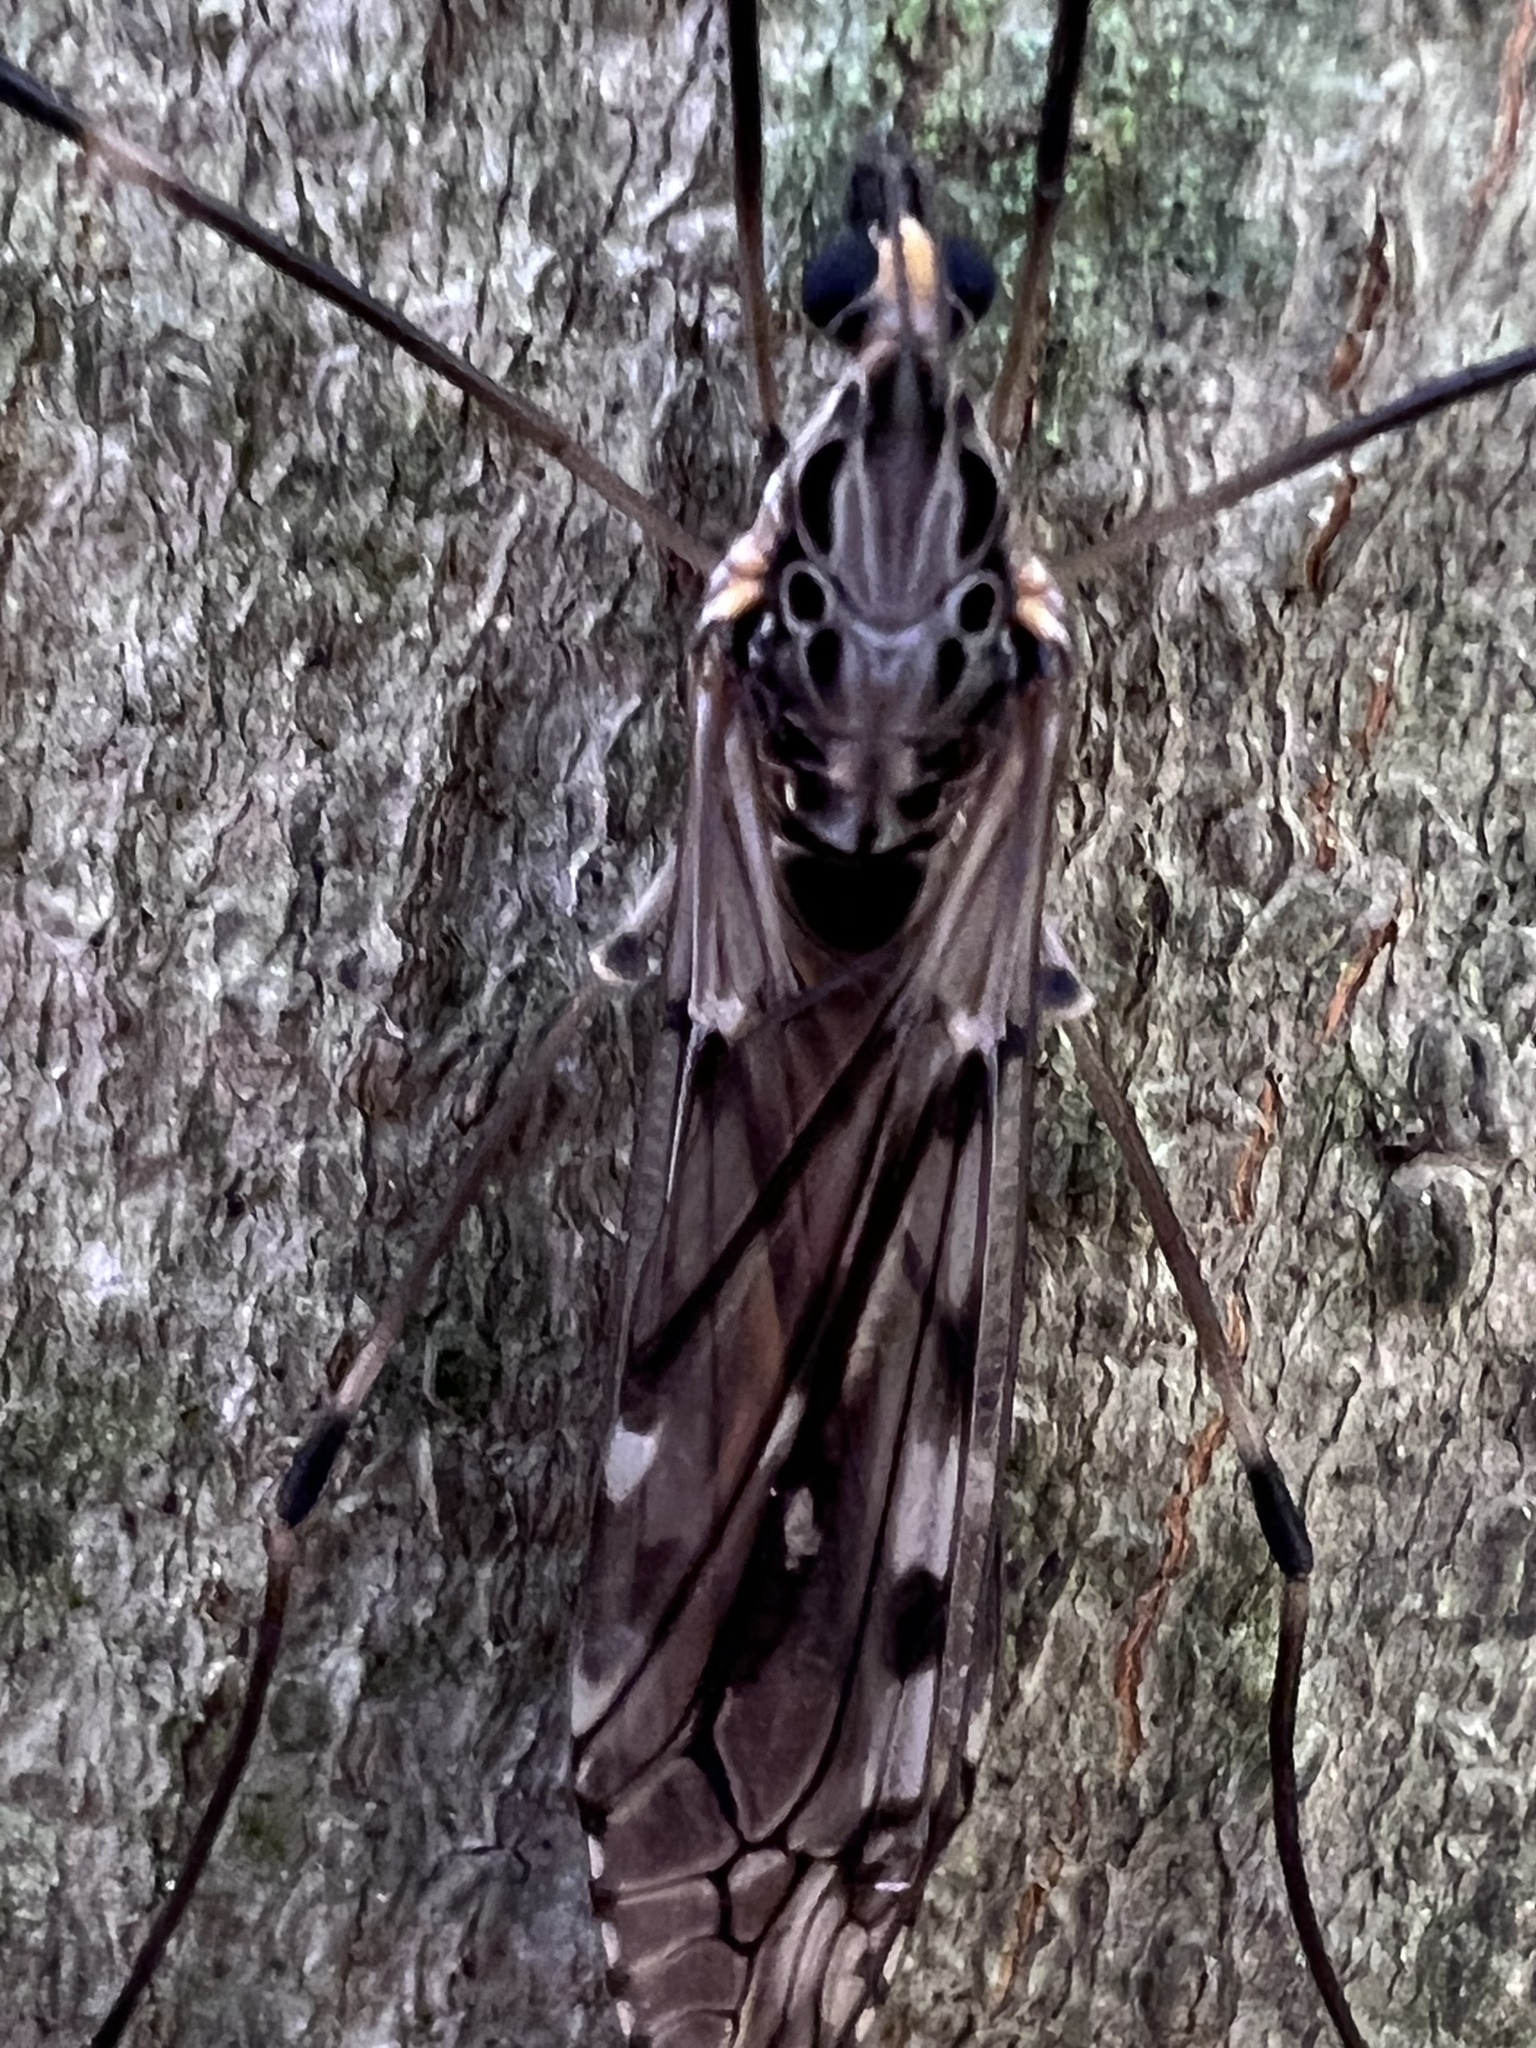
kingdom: Animalia
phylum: Arthropoda
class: Insecta
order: Diptera
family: Tipulidae
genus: Tipula
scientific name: Tipula abdominalis
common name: Giant crane fly
